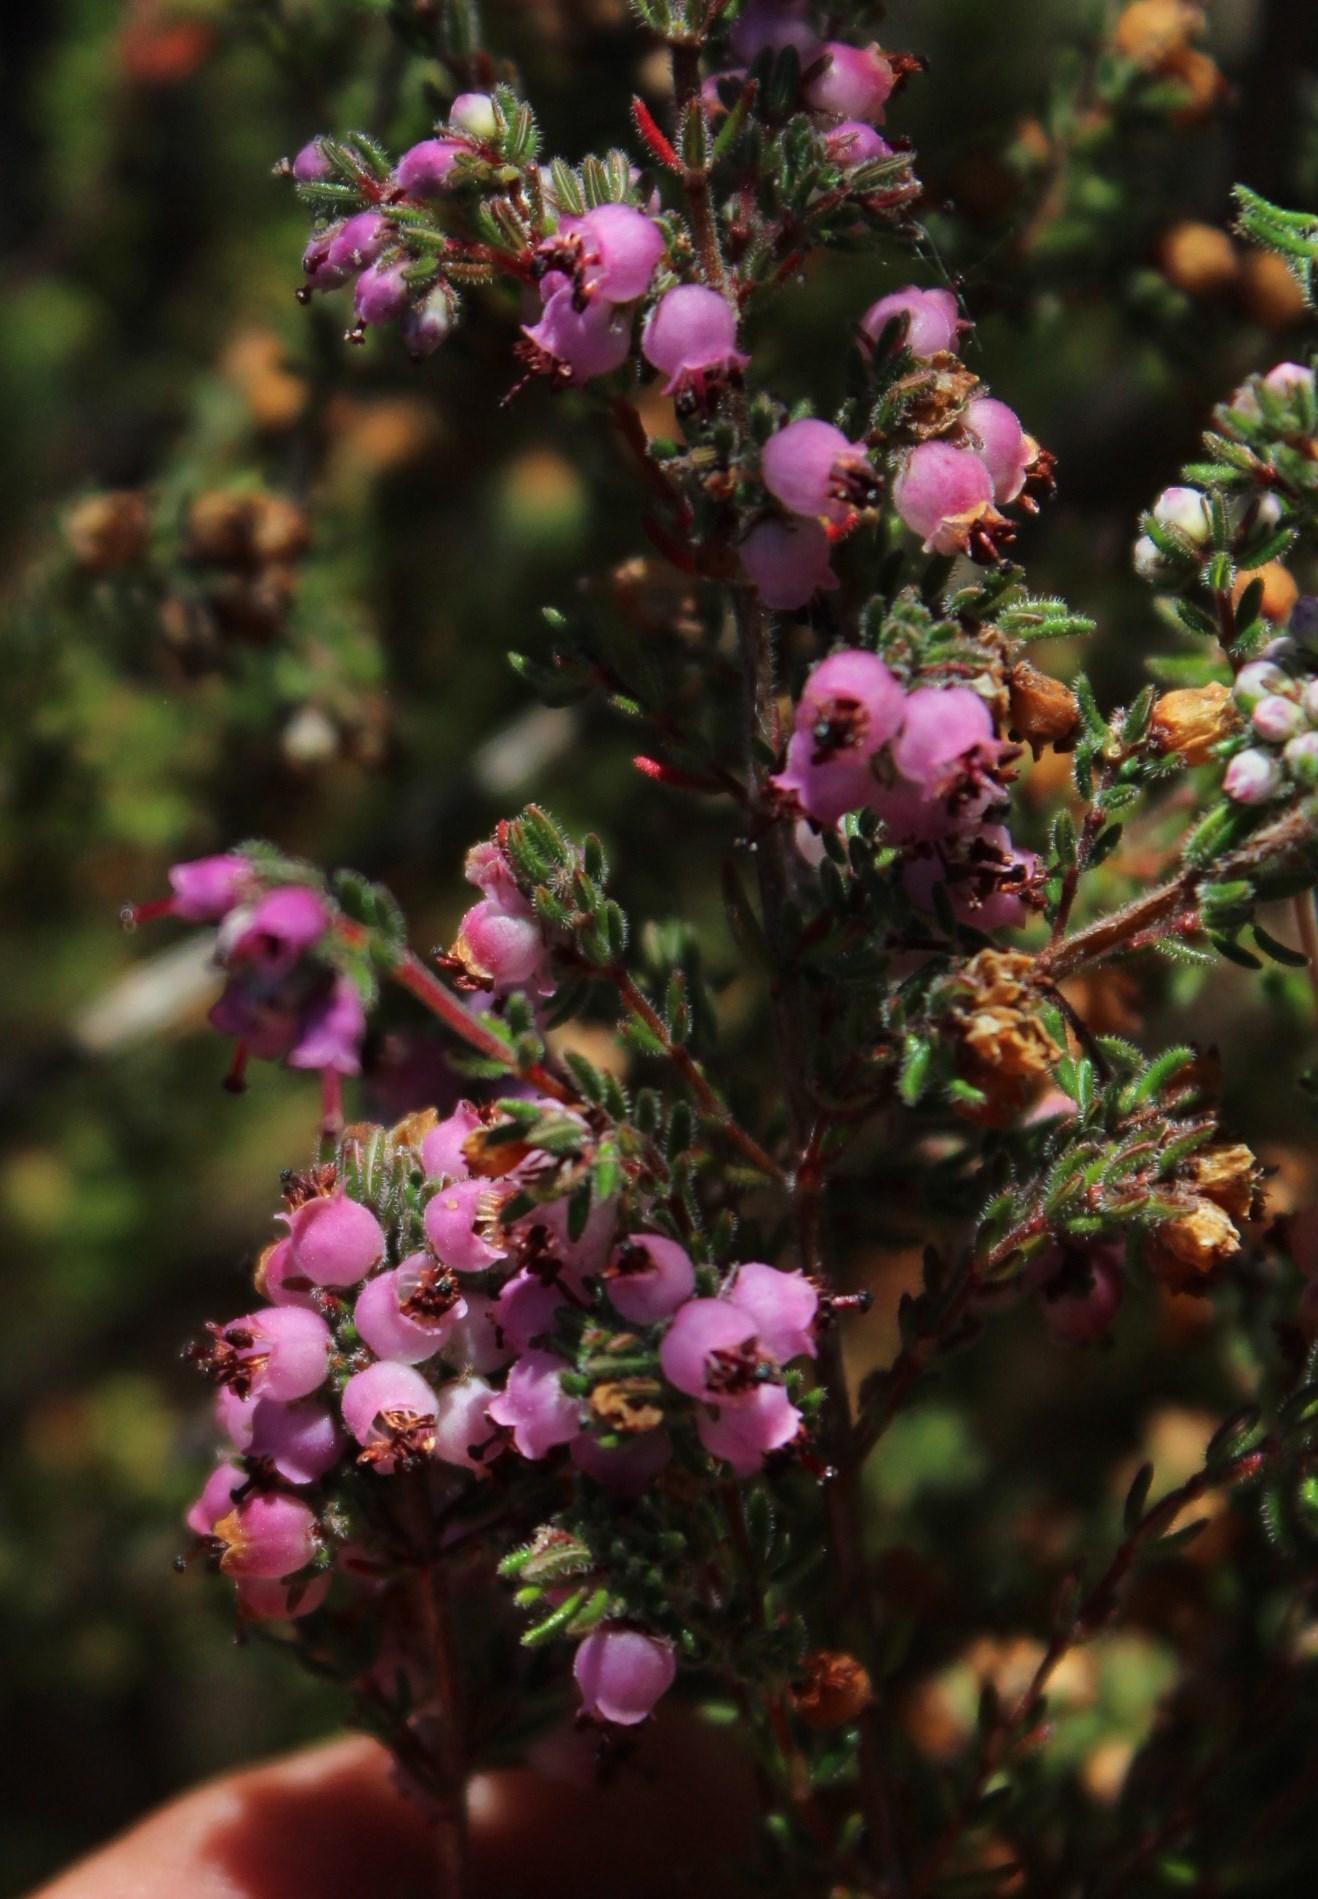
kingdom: Plantae
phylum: Tracheophyta
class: Magnoliopsida
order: Ericales
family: Ericaceae
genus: Erica
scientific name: Erica turgida
